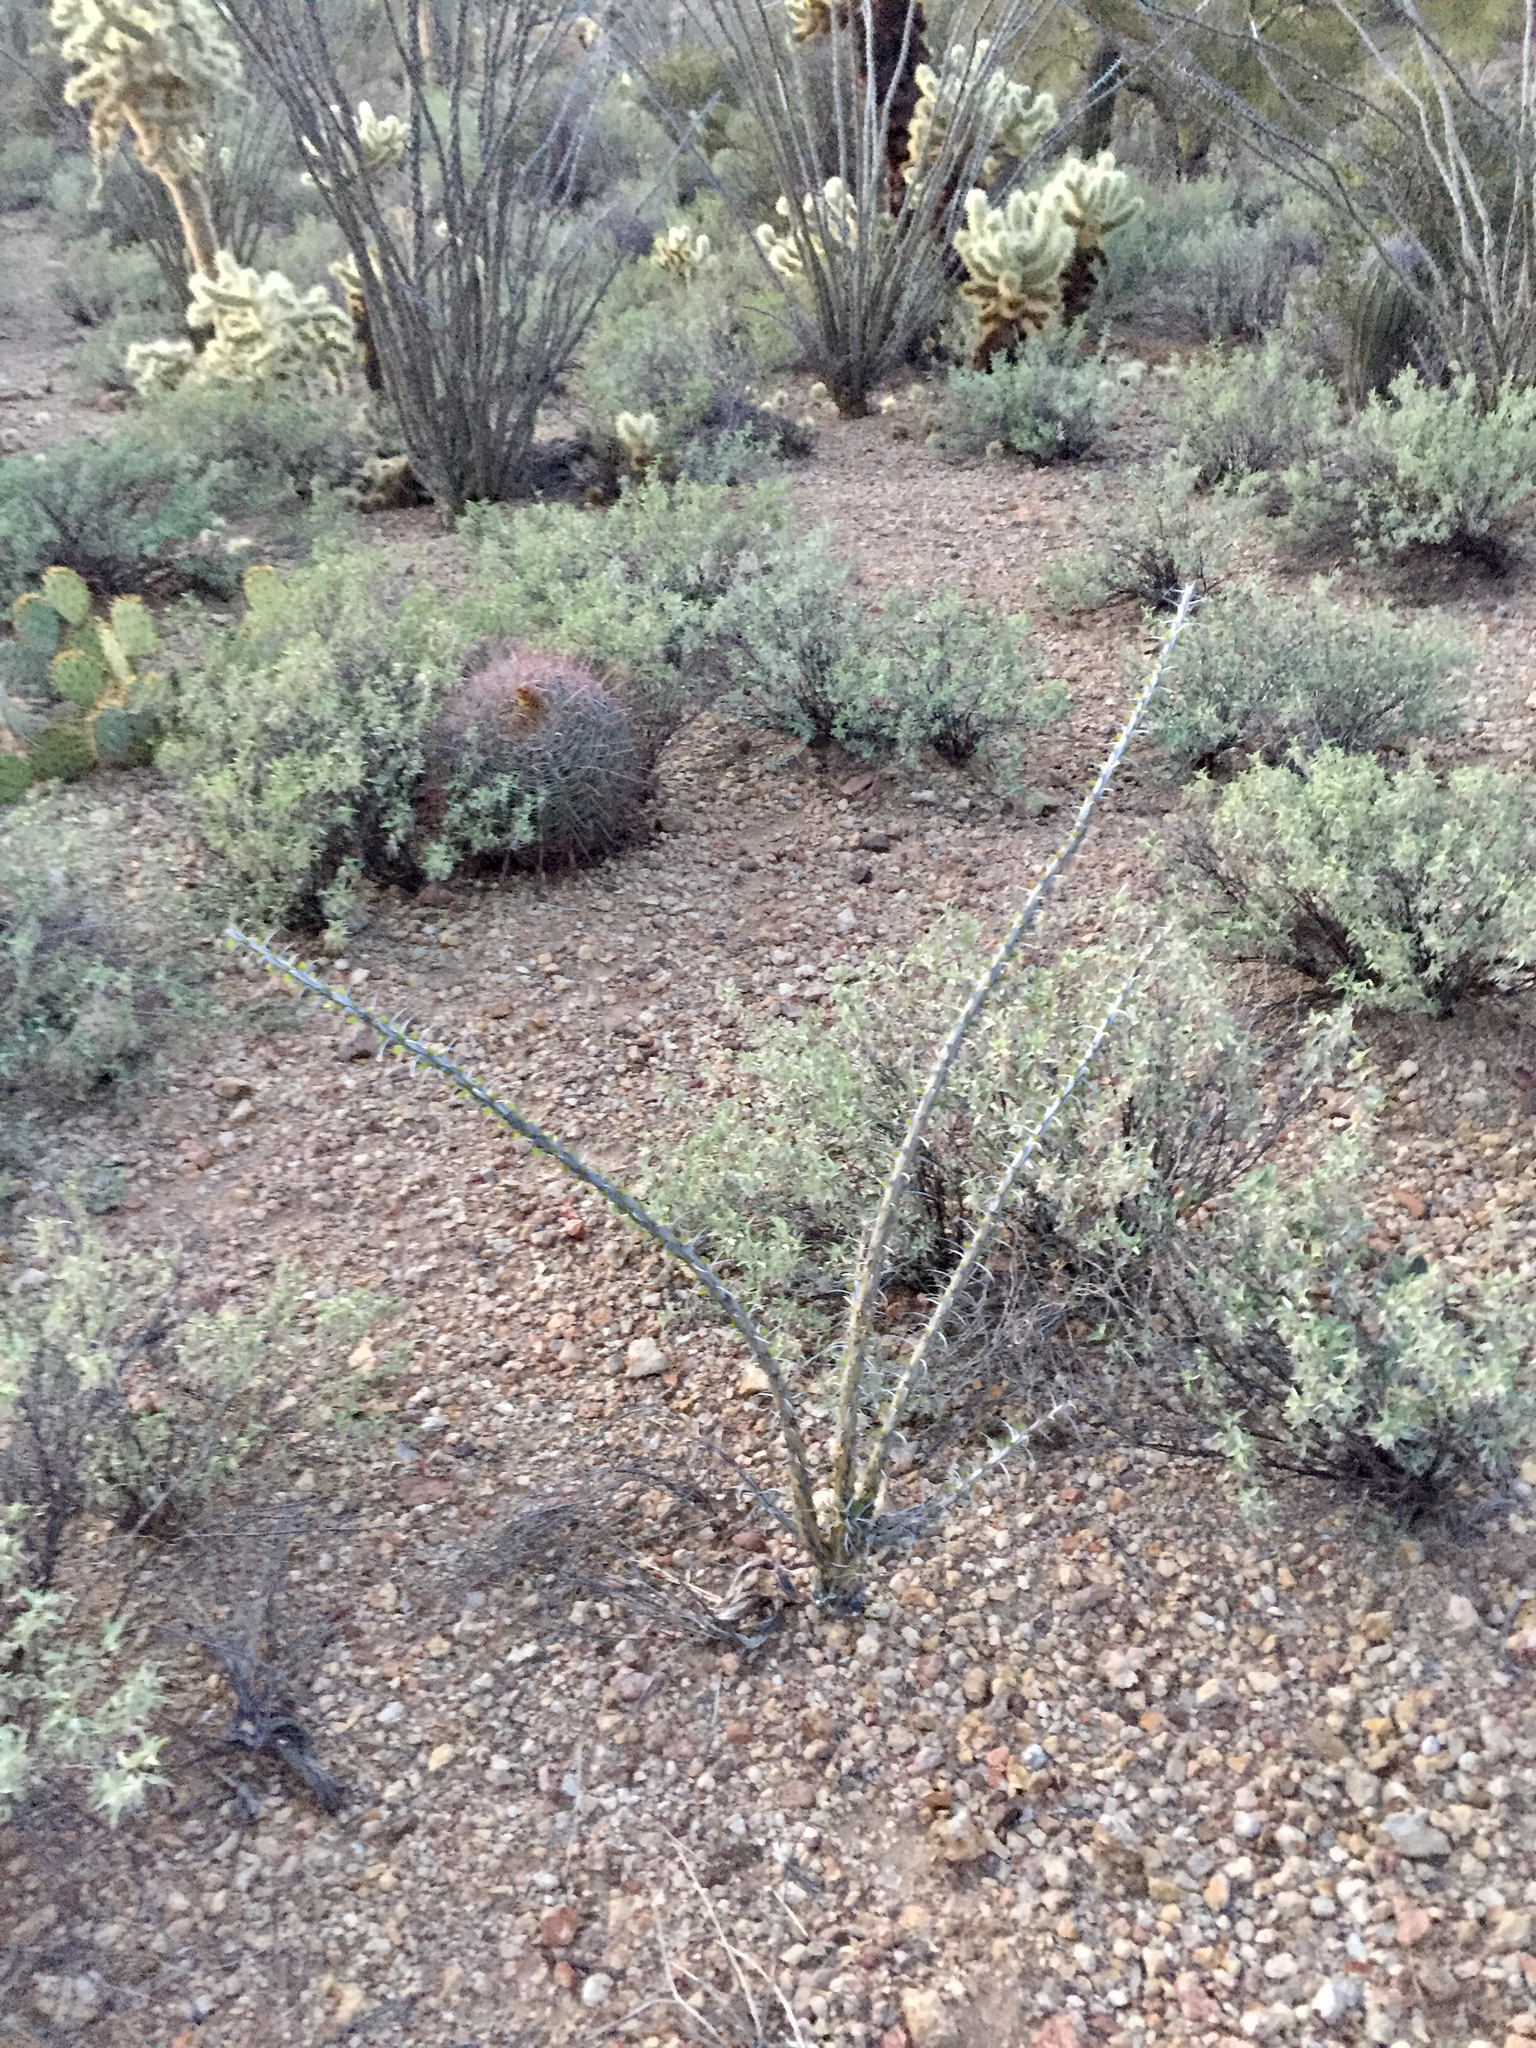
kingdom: Plantae
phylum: Tracheophyta
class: Magnoliopsida
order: Ericales
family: Fouquieriaceae
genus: Fouquieria
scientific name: Fouquieria splendens
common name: Vine-cactus
